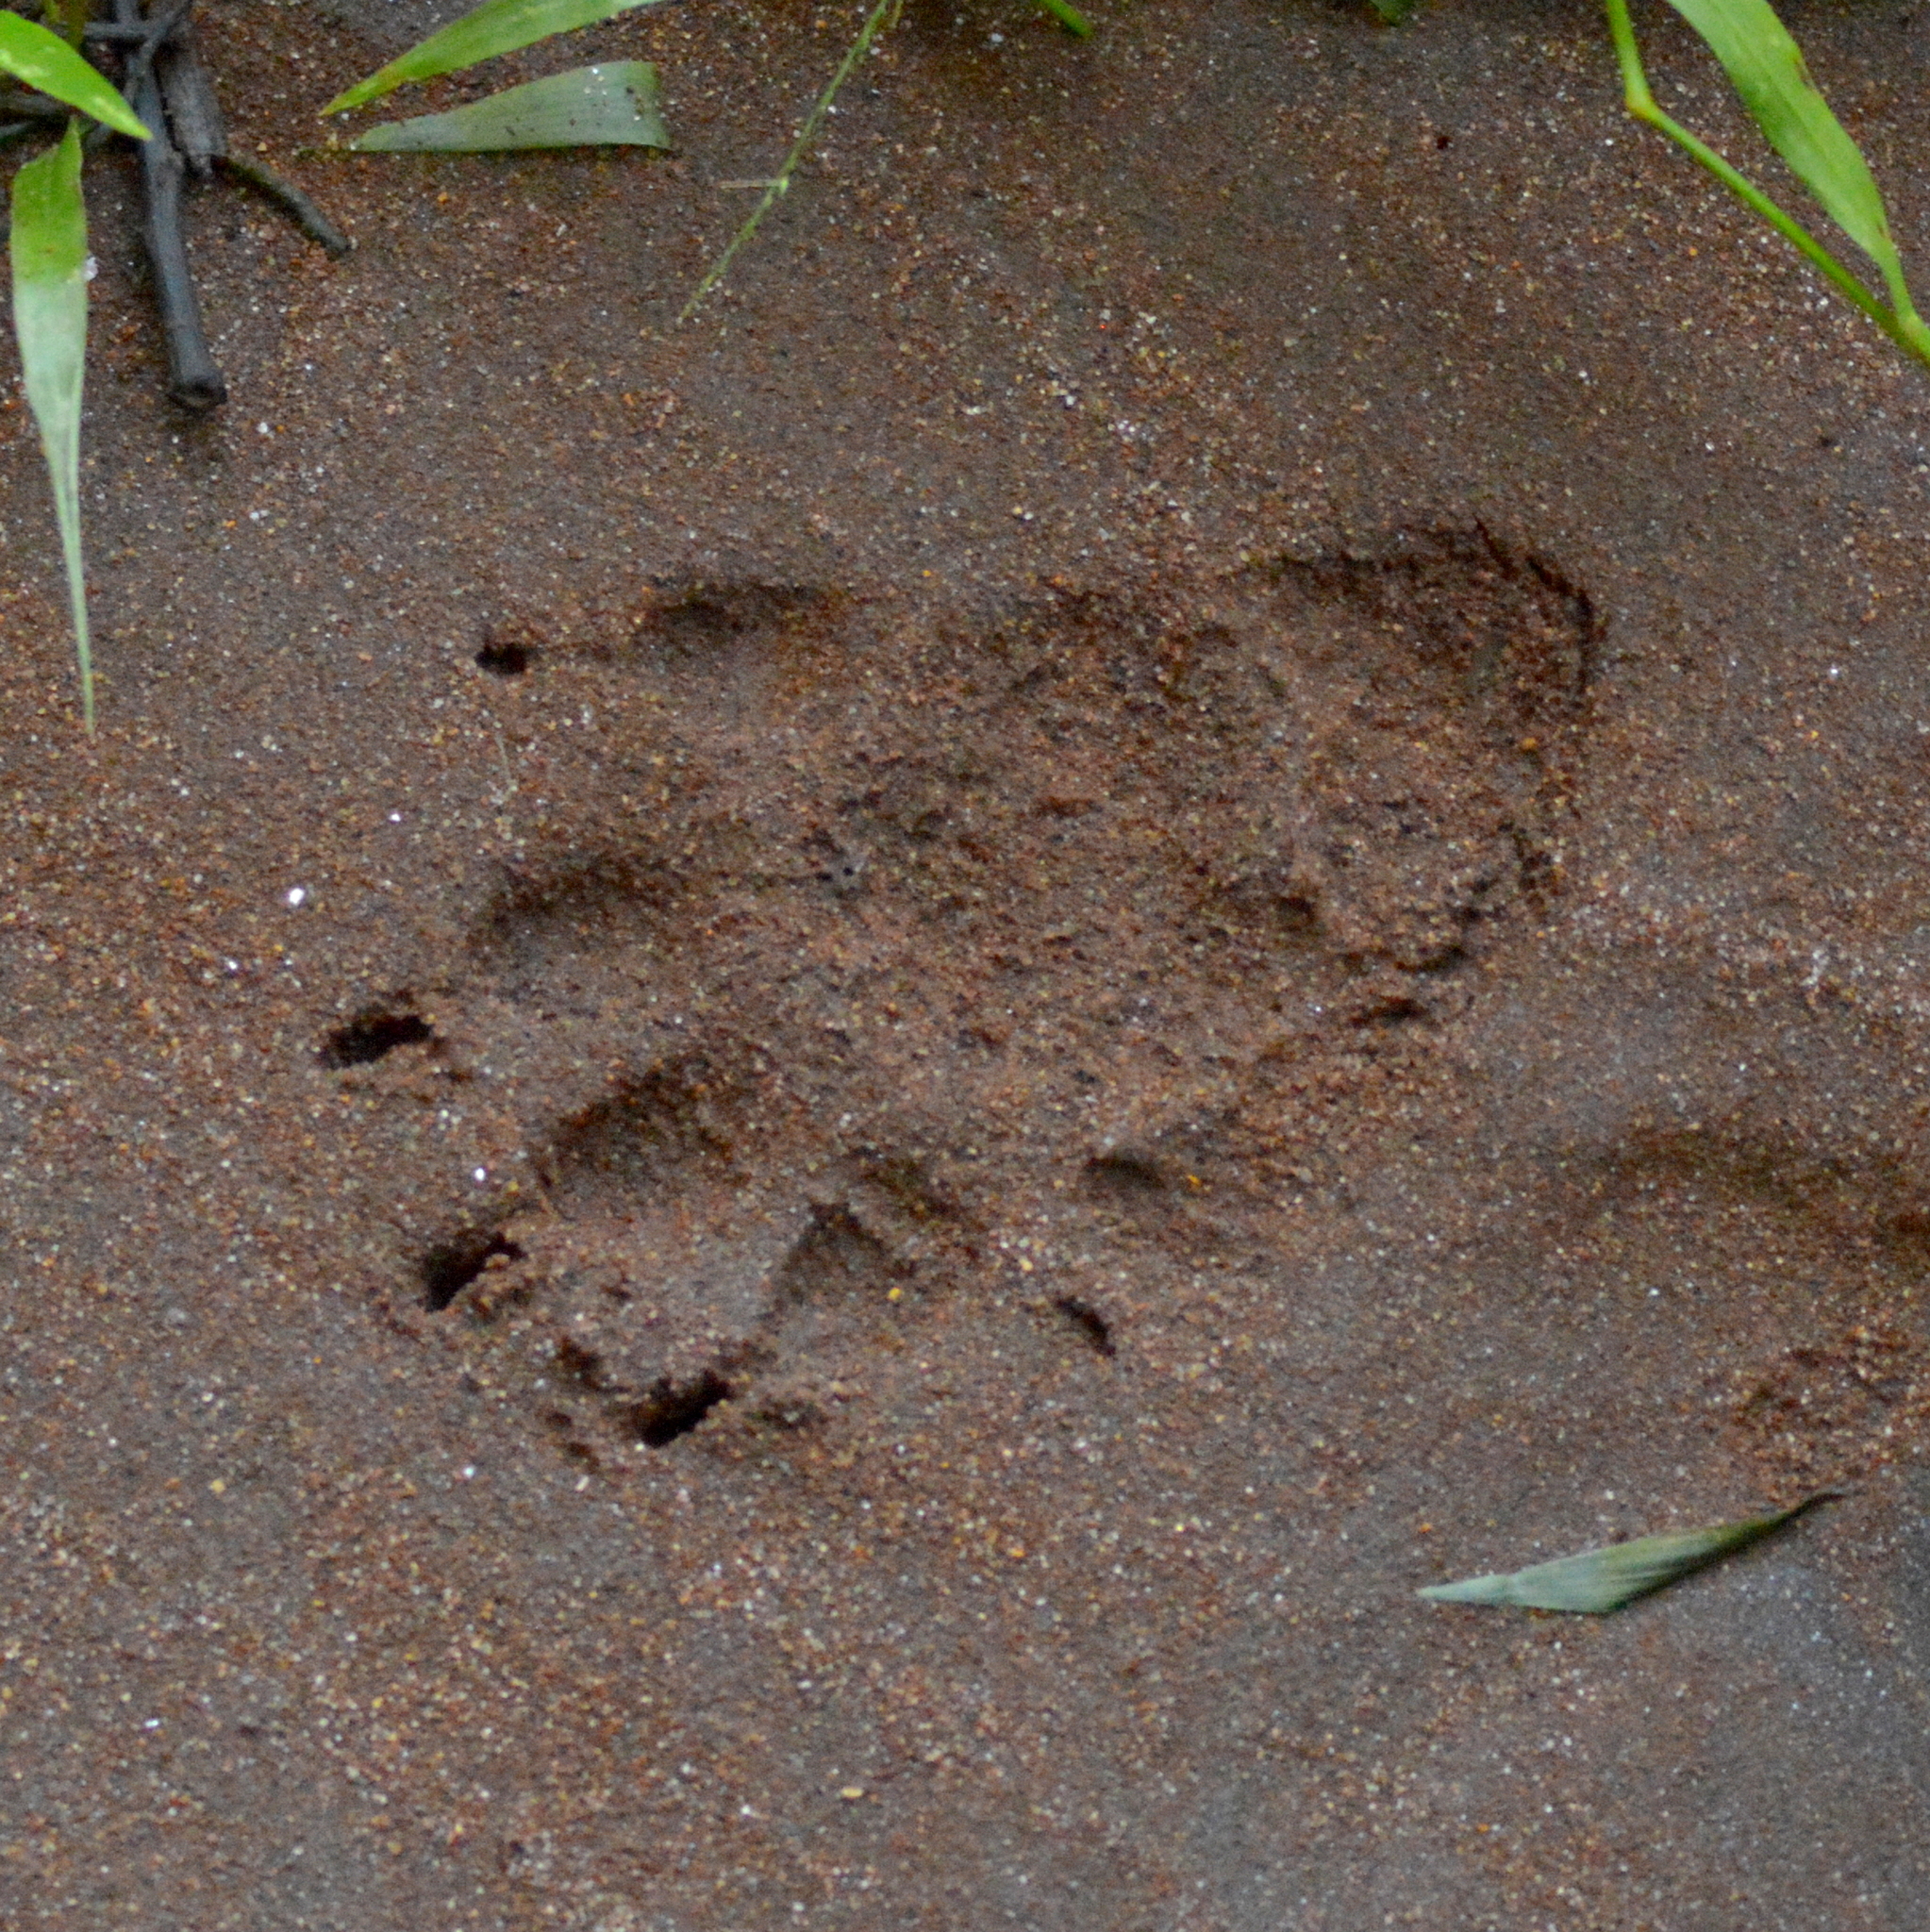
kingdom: Animalia
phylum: Chordata
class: Mammalia
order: Carnivora
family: Mustelidae
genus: Lontra
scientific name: Lontra longicaudis
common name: Neotropical otter
